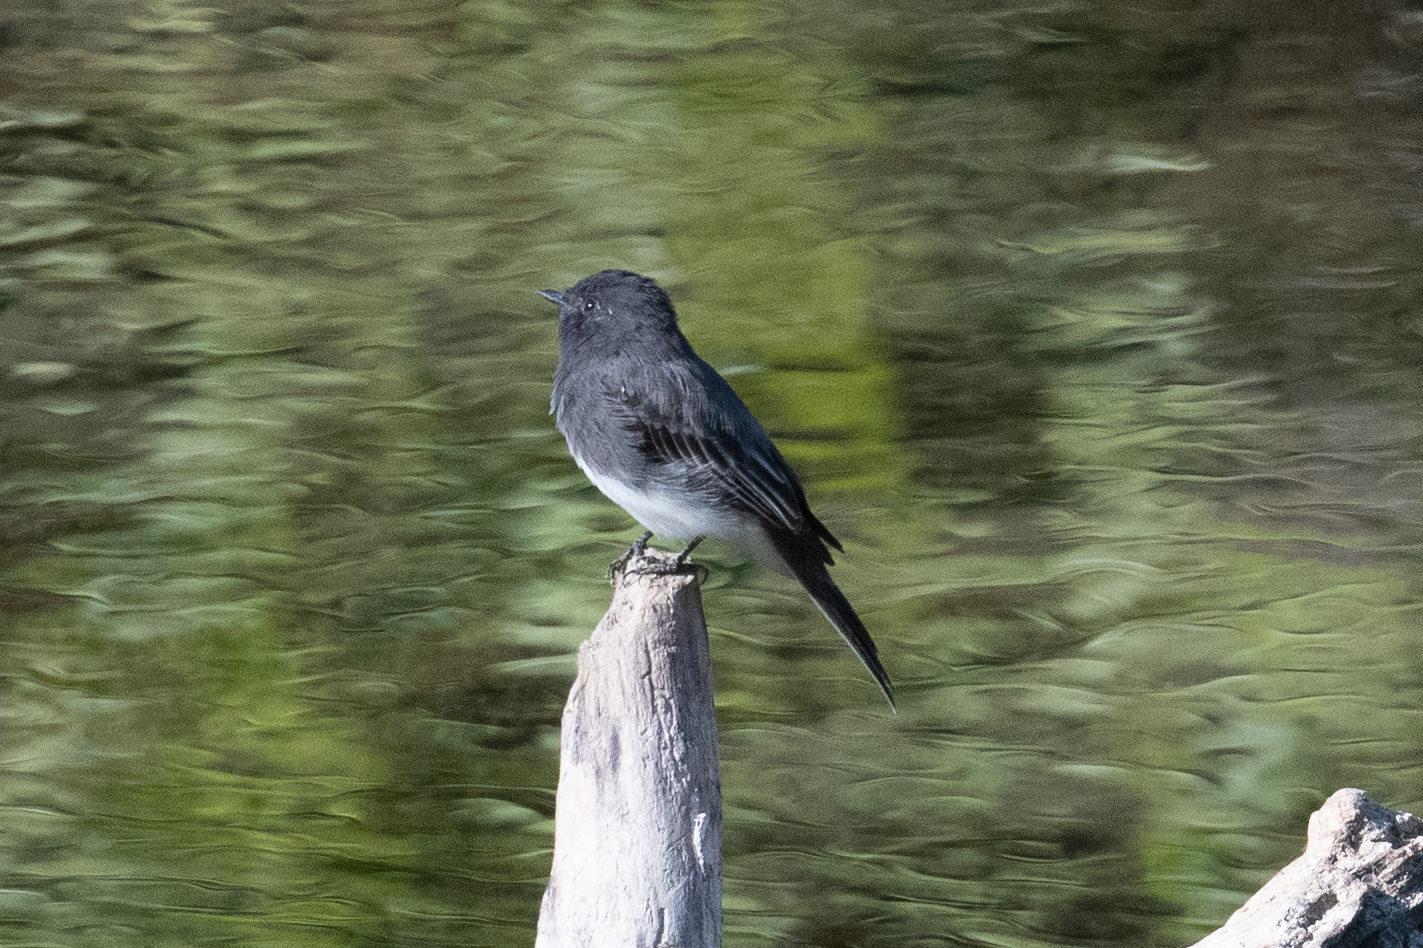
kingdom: Animalia
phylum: Chordata
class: Aves
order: Passeriformes
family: Tyrannidae
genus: Sayornis
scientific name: Sayornis nigricans
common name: Black phoebe
